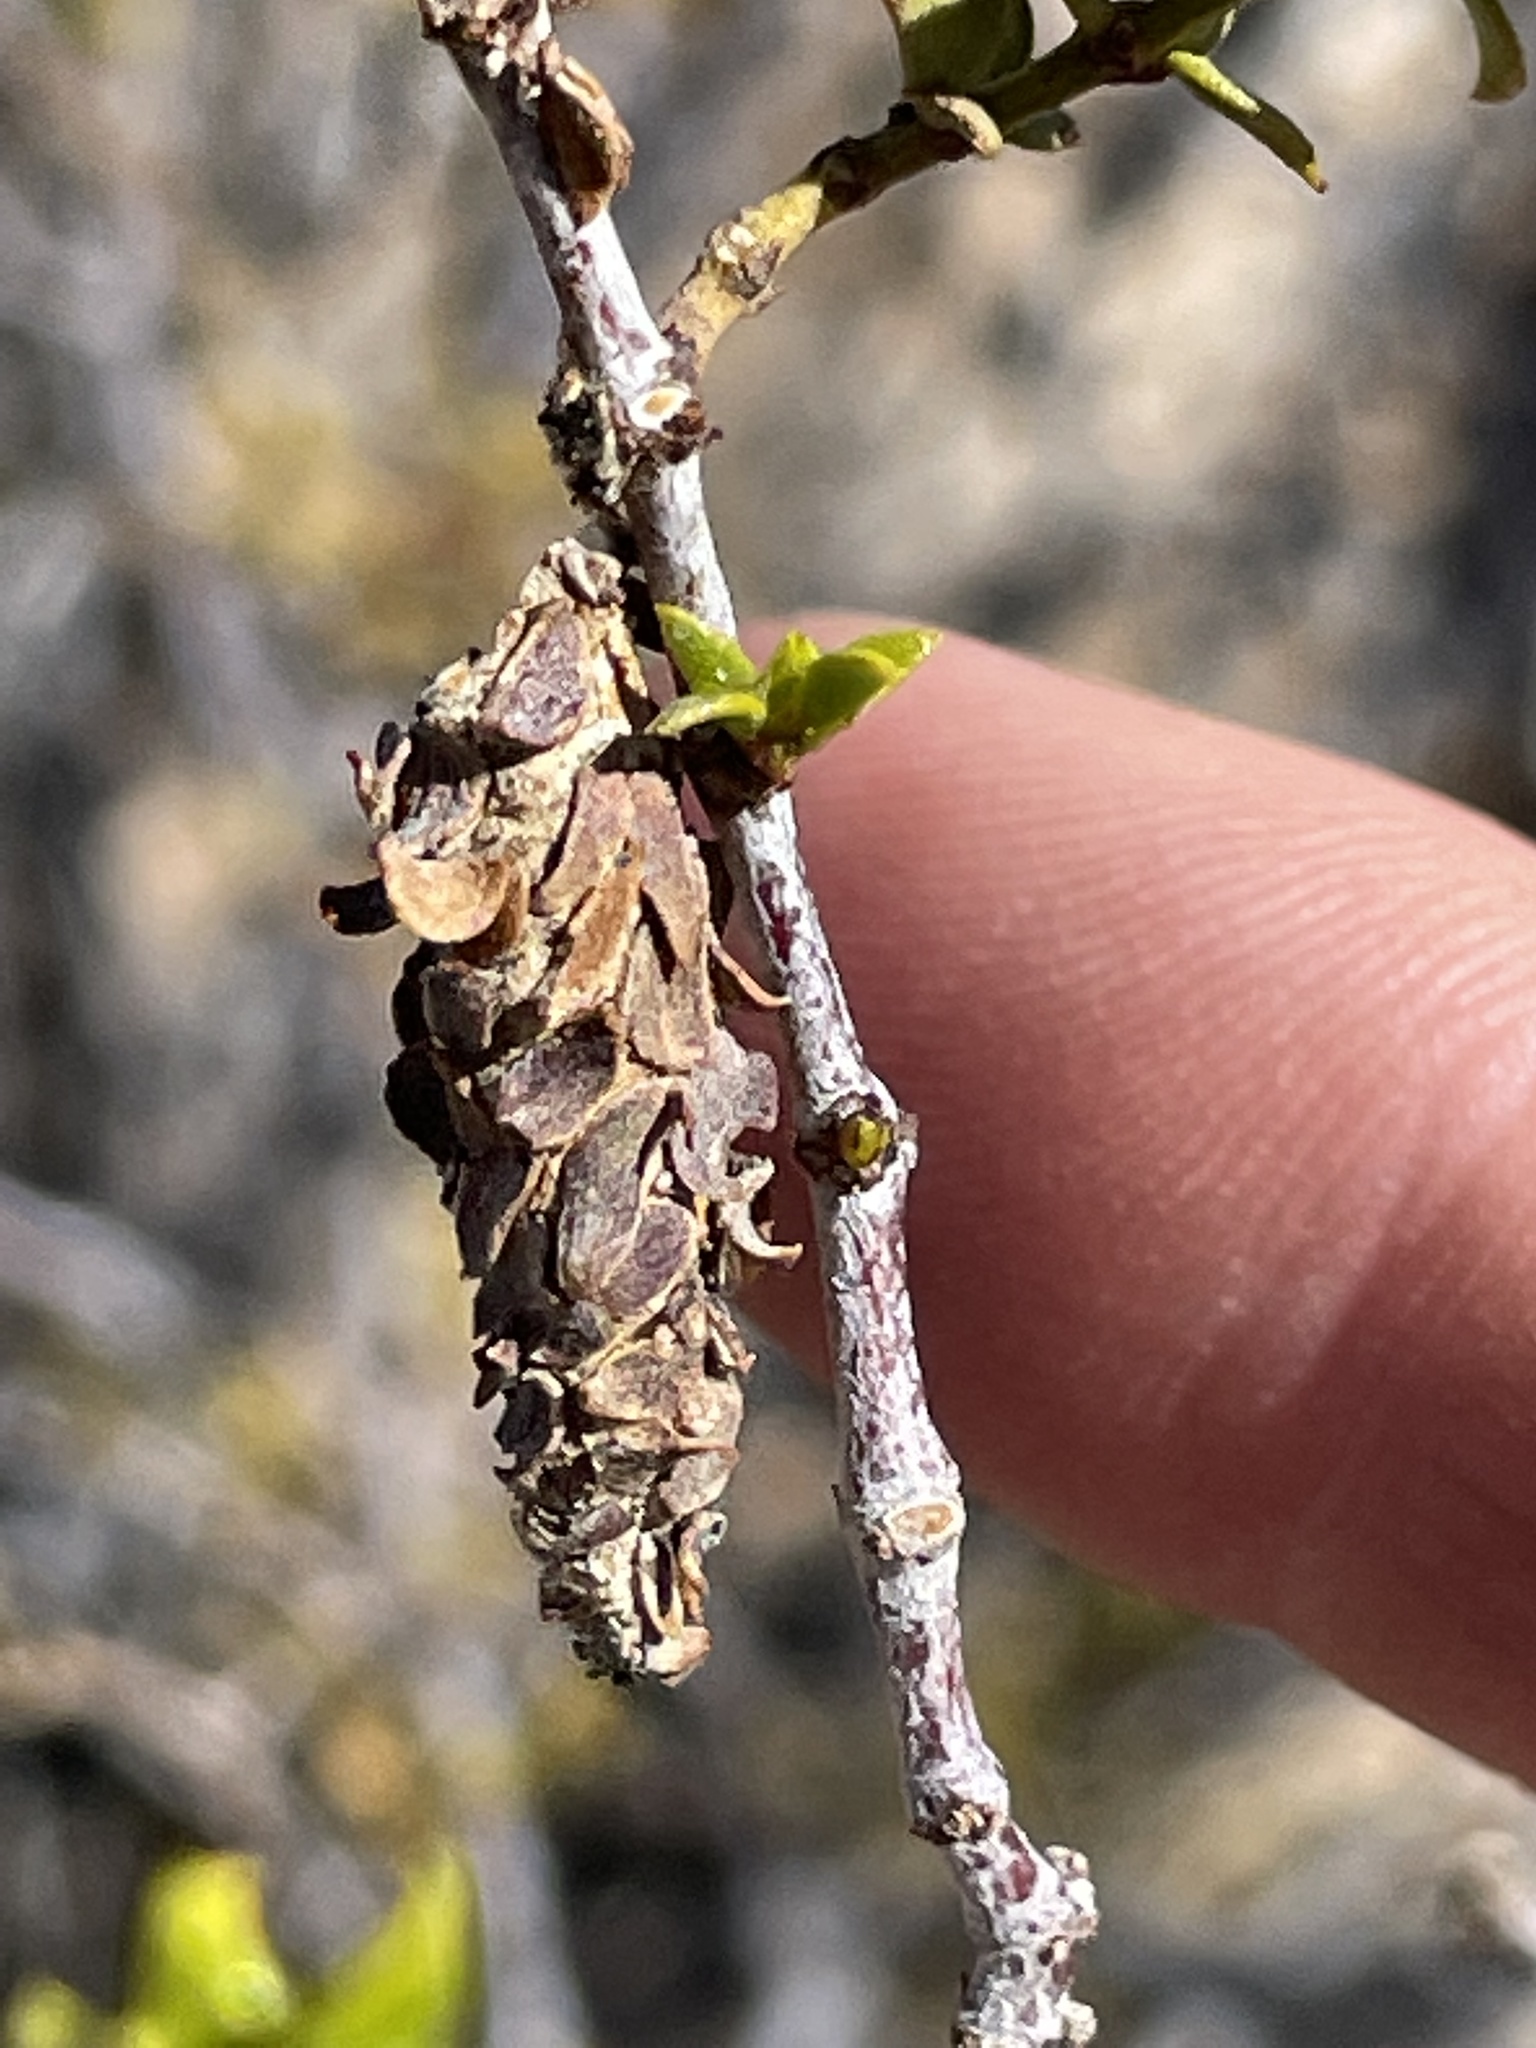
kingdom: Animalia
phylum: Arthropoda
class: Insecta
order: Lepidoptera
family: Psychidae
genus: Thyridopteryx
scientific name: Thyridopteryx meadii
